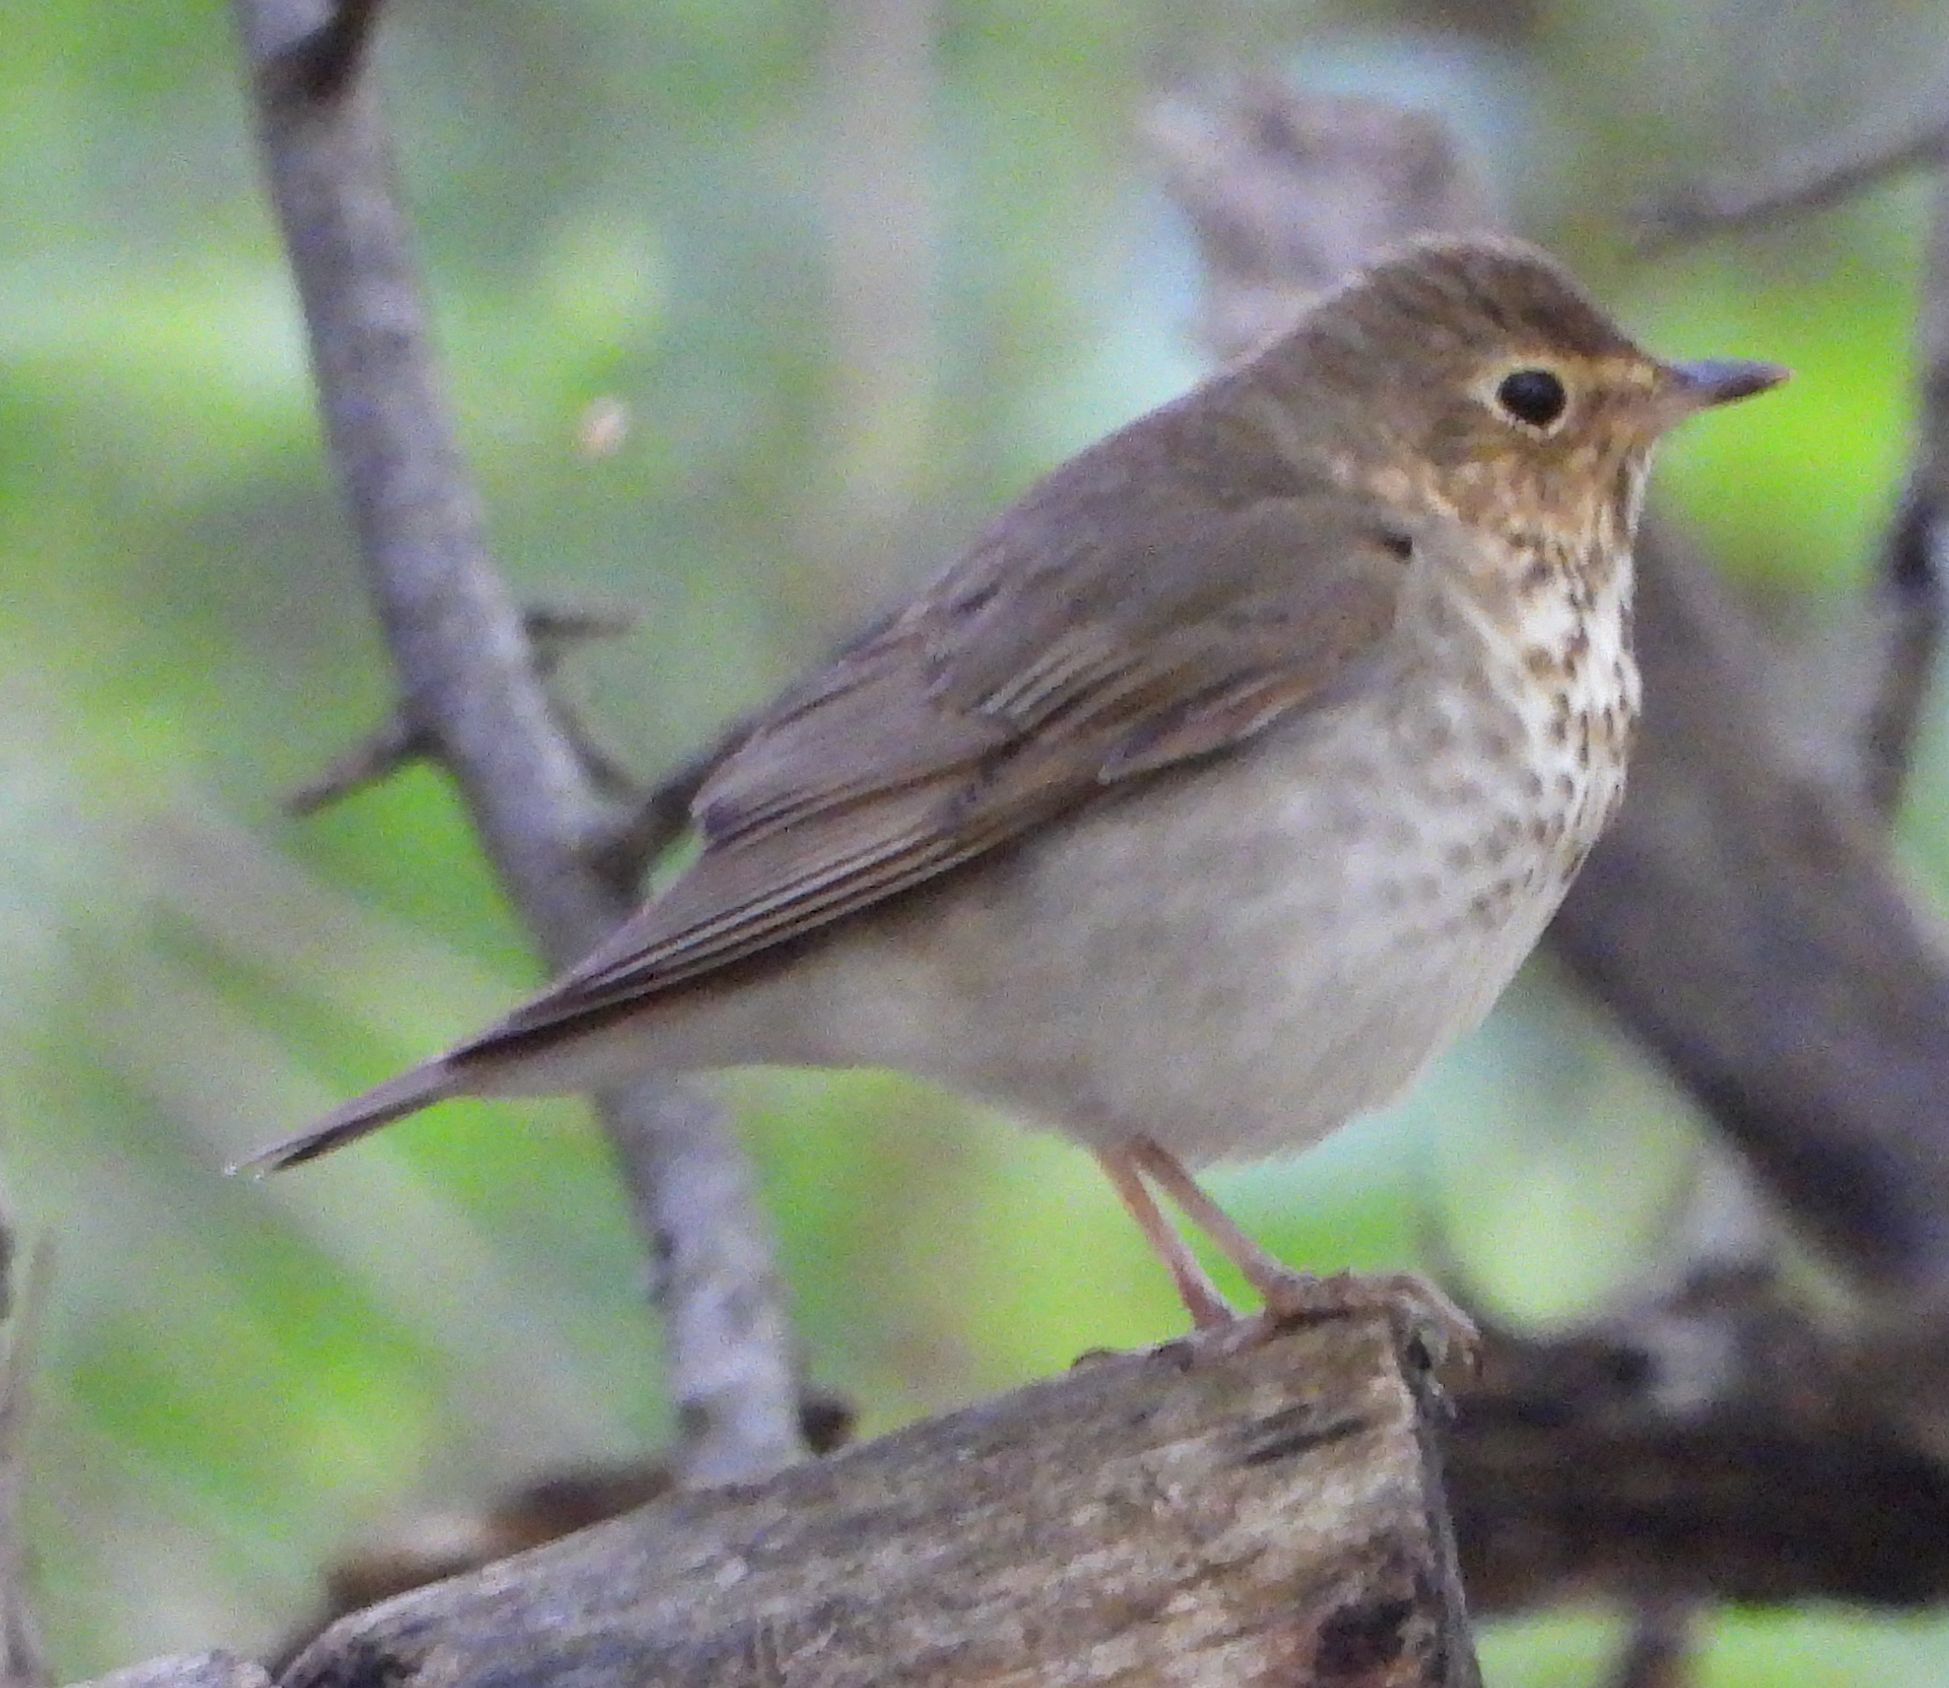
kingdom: Animalia
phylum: Chordata
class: Aves
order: Passeriformes
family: Turdidae
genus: Catharus
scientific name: Catharus ustulatus
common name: Swainson's thrush
